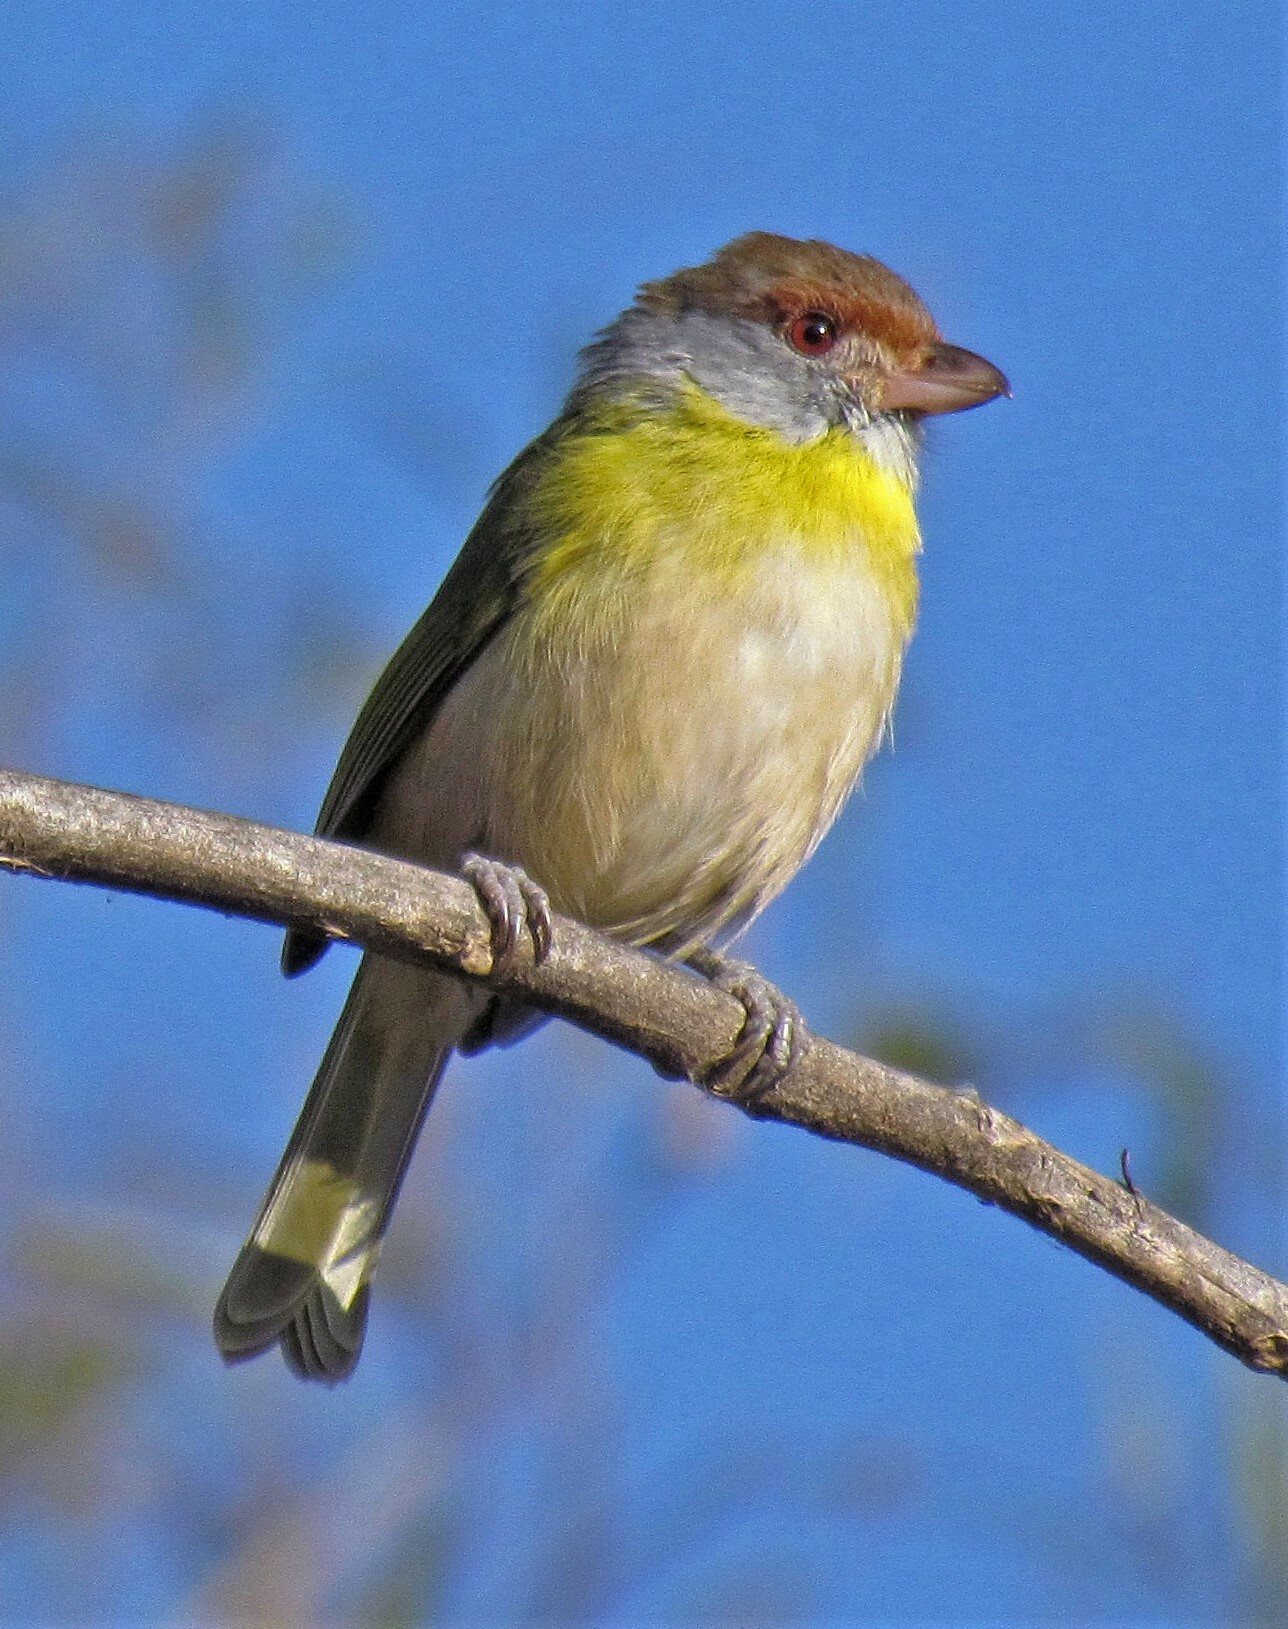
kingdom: Animalia
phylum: Chordata
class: Aves
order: Passeriformes
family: Vireonidae
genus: Cyclarhis
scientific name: Cyclarhis gujanensis
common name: Rufous-browed peppershrike
